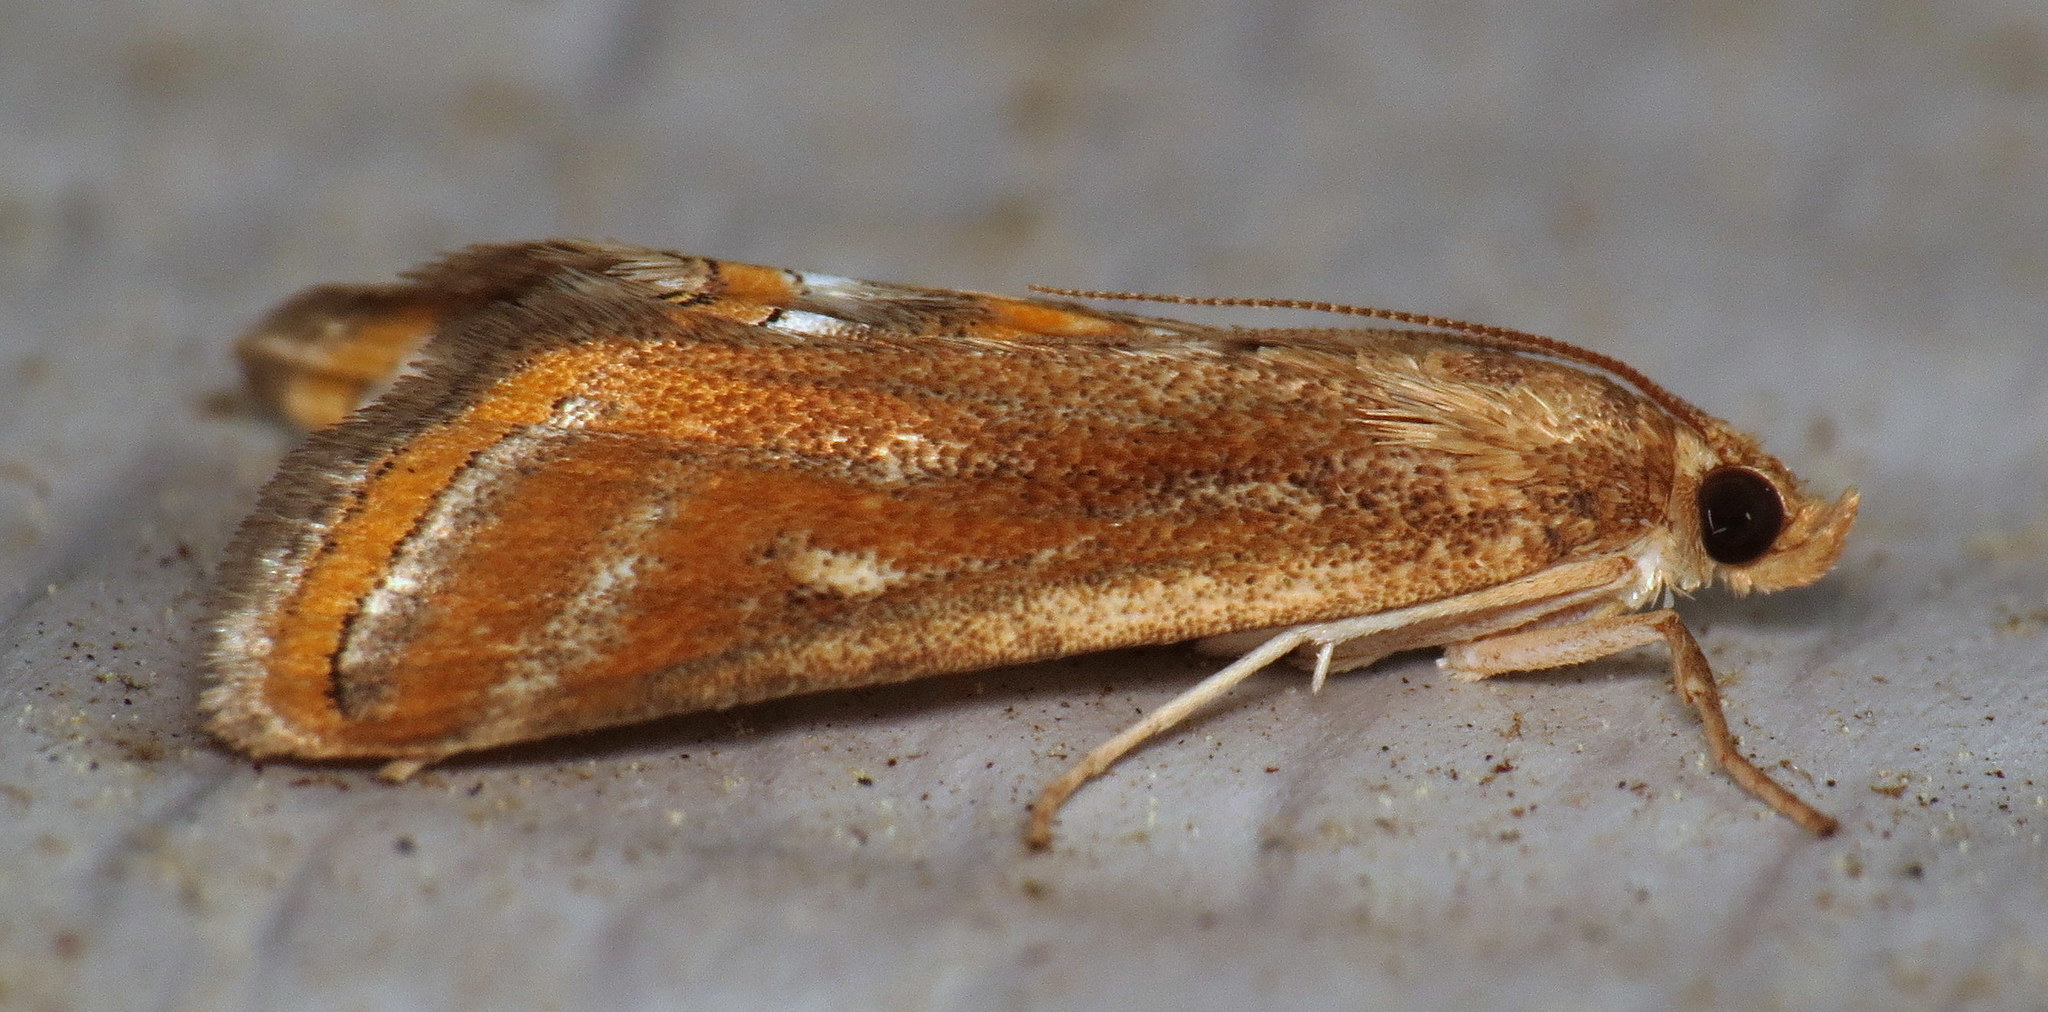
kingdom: Animalia
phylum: Arthropoda
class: Insecta
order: Lepidoptera
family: Crambidae
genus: Parapoynx
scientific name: Parapoynx seminealis
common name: Floating-heart waterlily leafcutter
